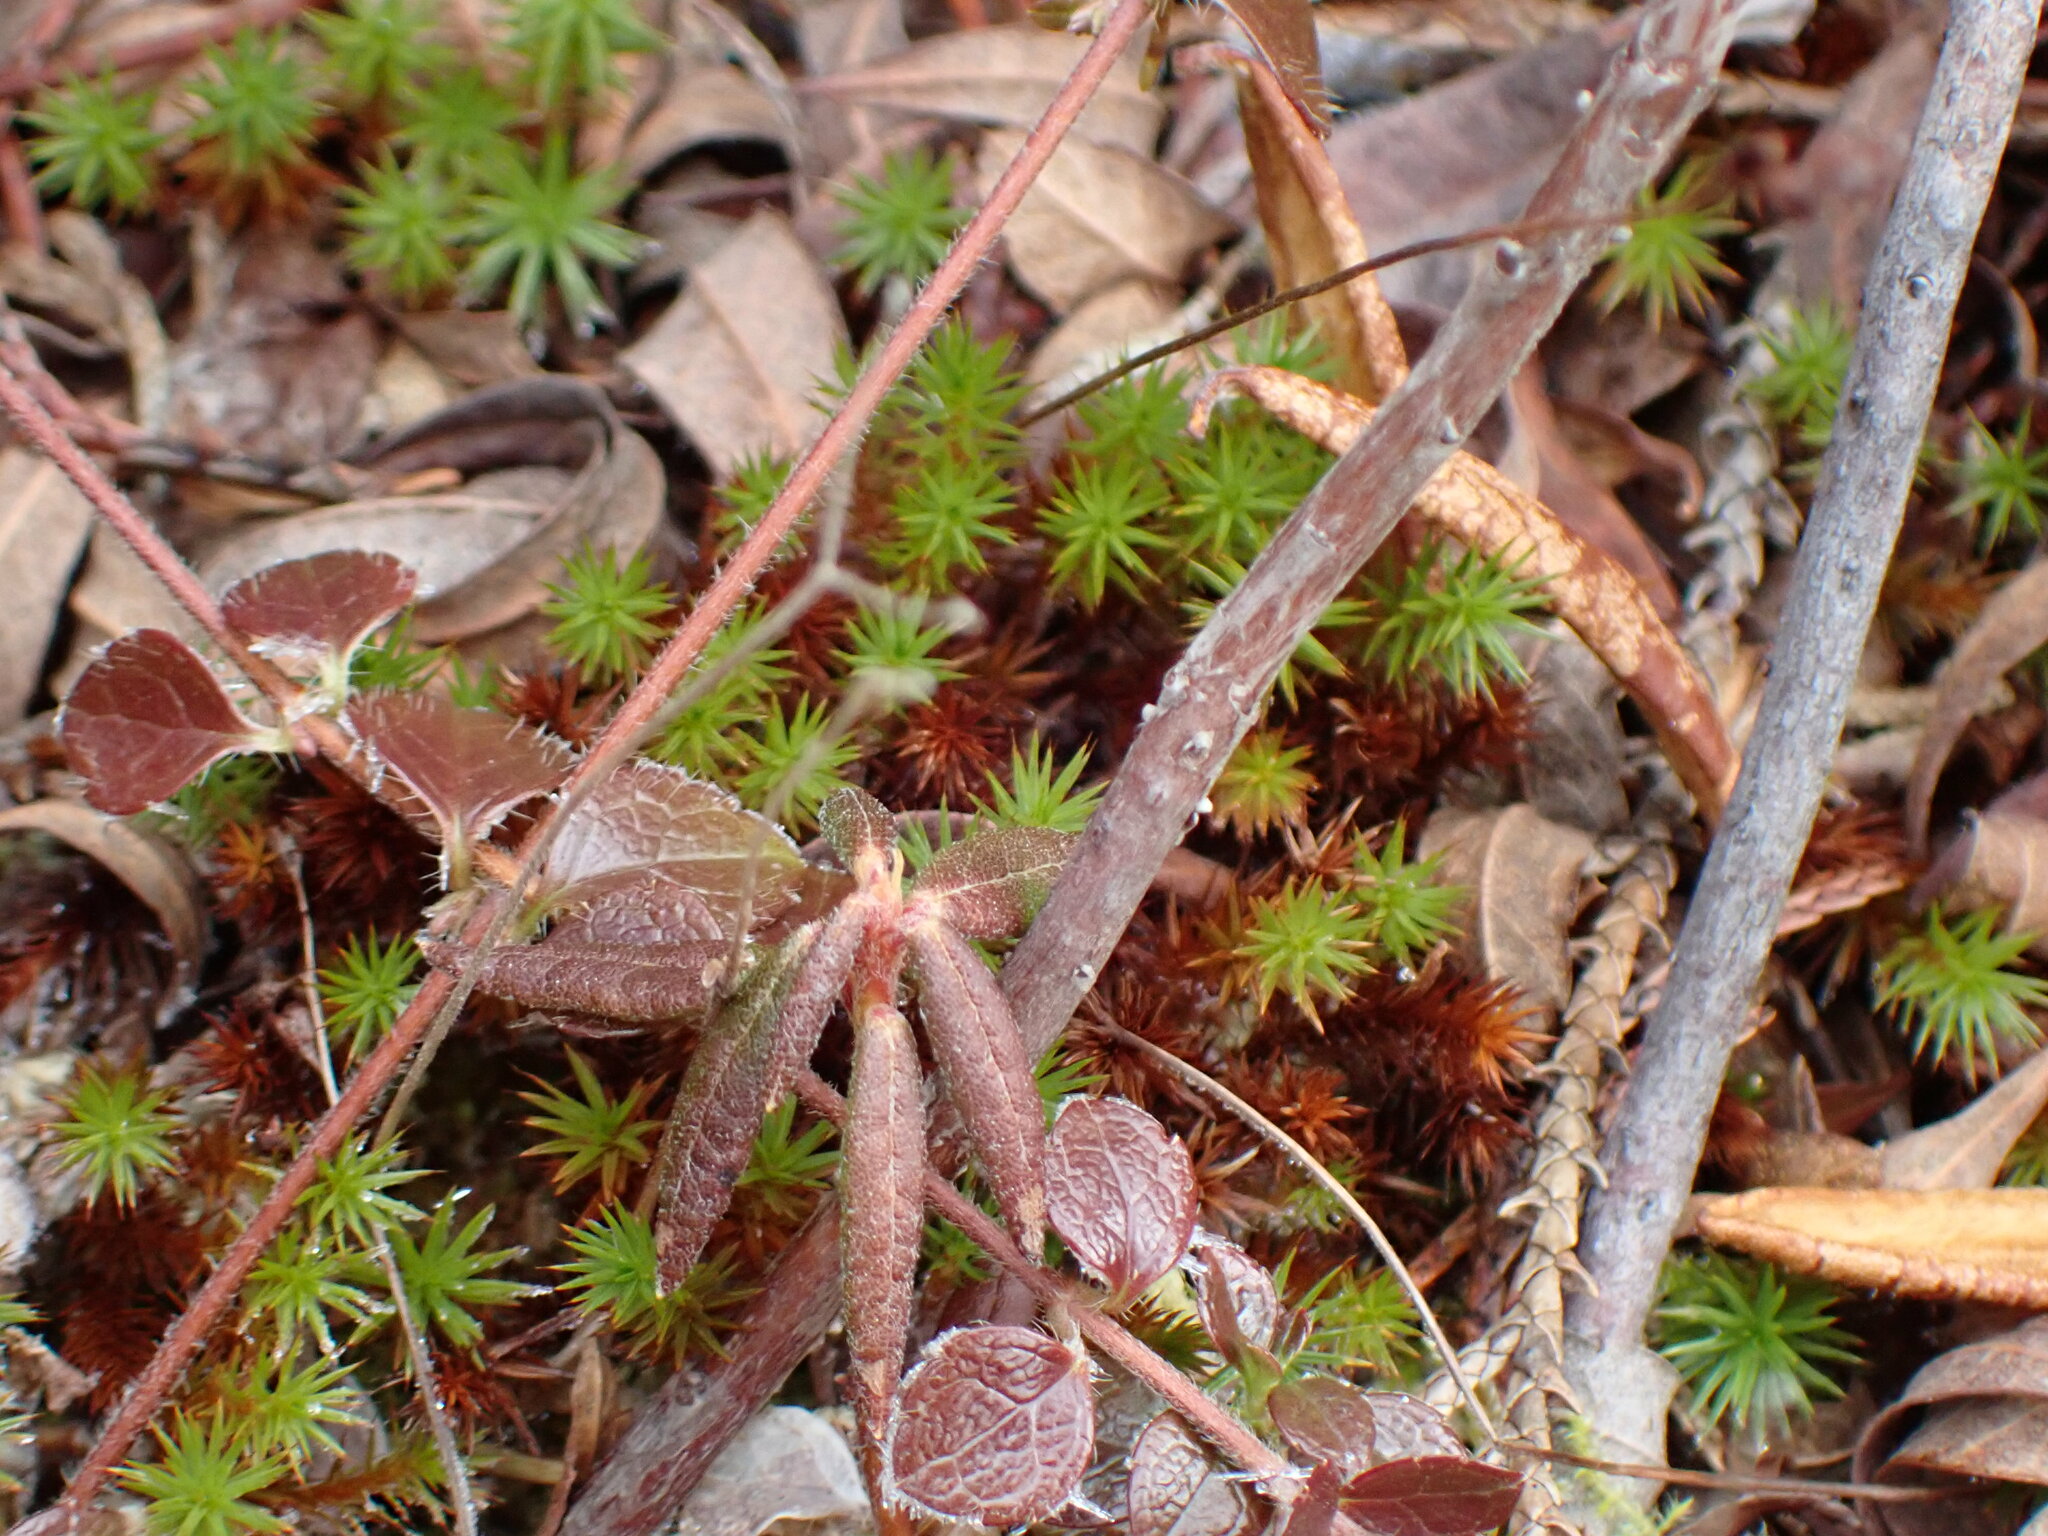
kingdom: Plantae
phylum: Bryophyta
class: Polytrichopsida
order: Polytrichales
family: Polytrichaceae
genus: Polytrichum
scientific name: Polytrichum strictum
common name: Bog haircap moss
